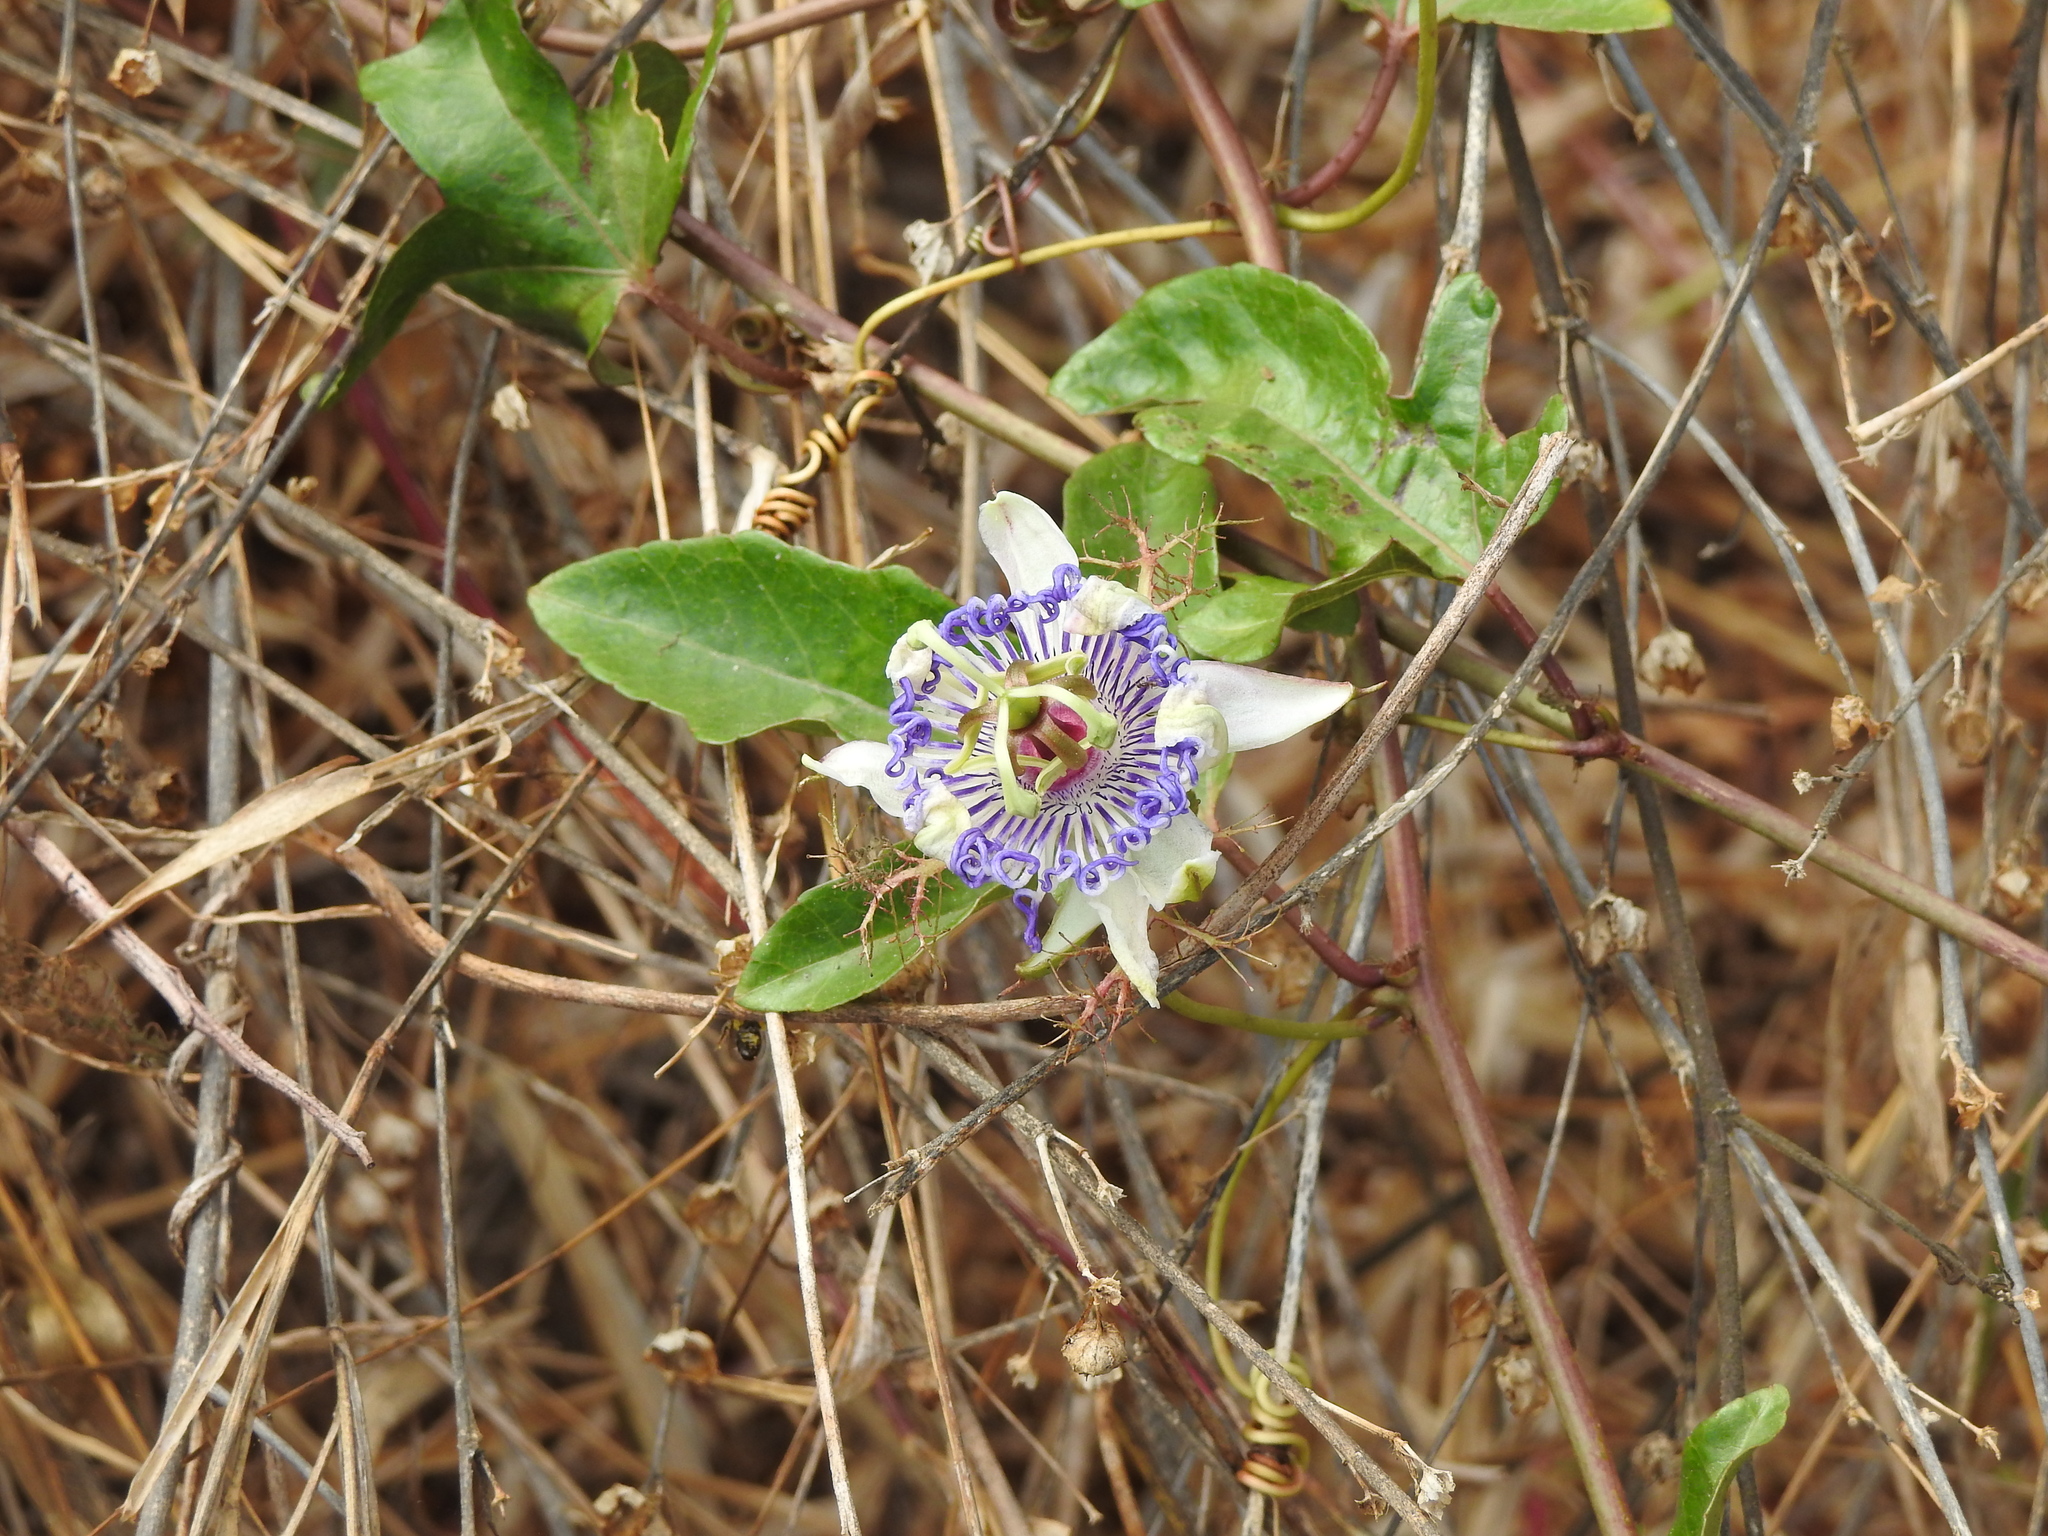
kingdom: Plantae
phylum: Tracheophyta
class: Magnoliopsida
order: Malpighiales
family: Passifloraceae
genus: Passiflora
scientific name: Passiflora ciliata
